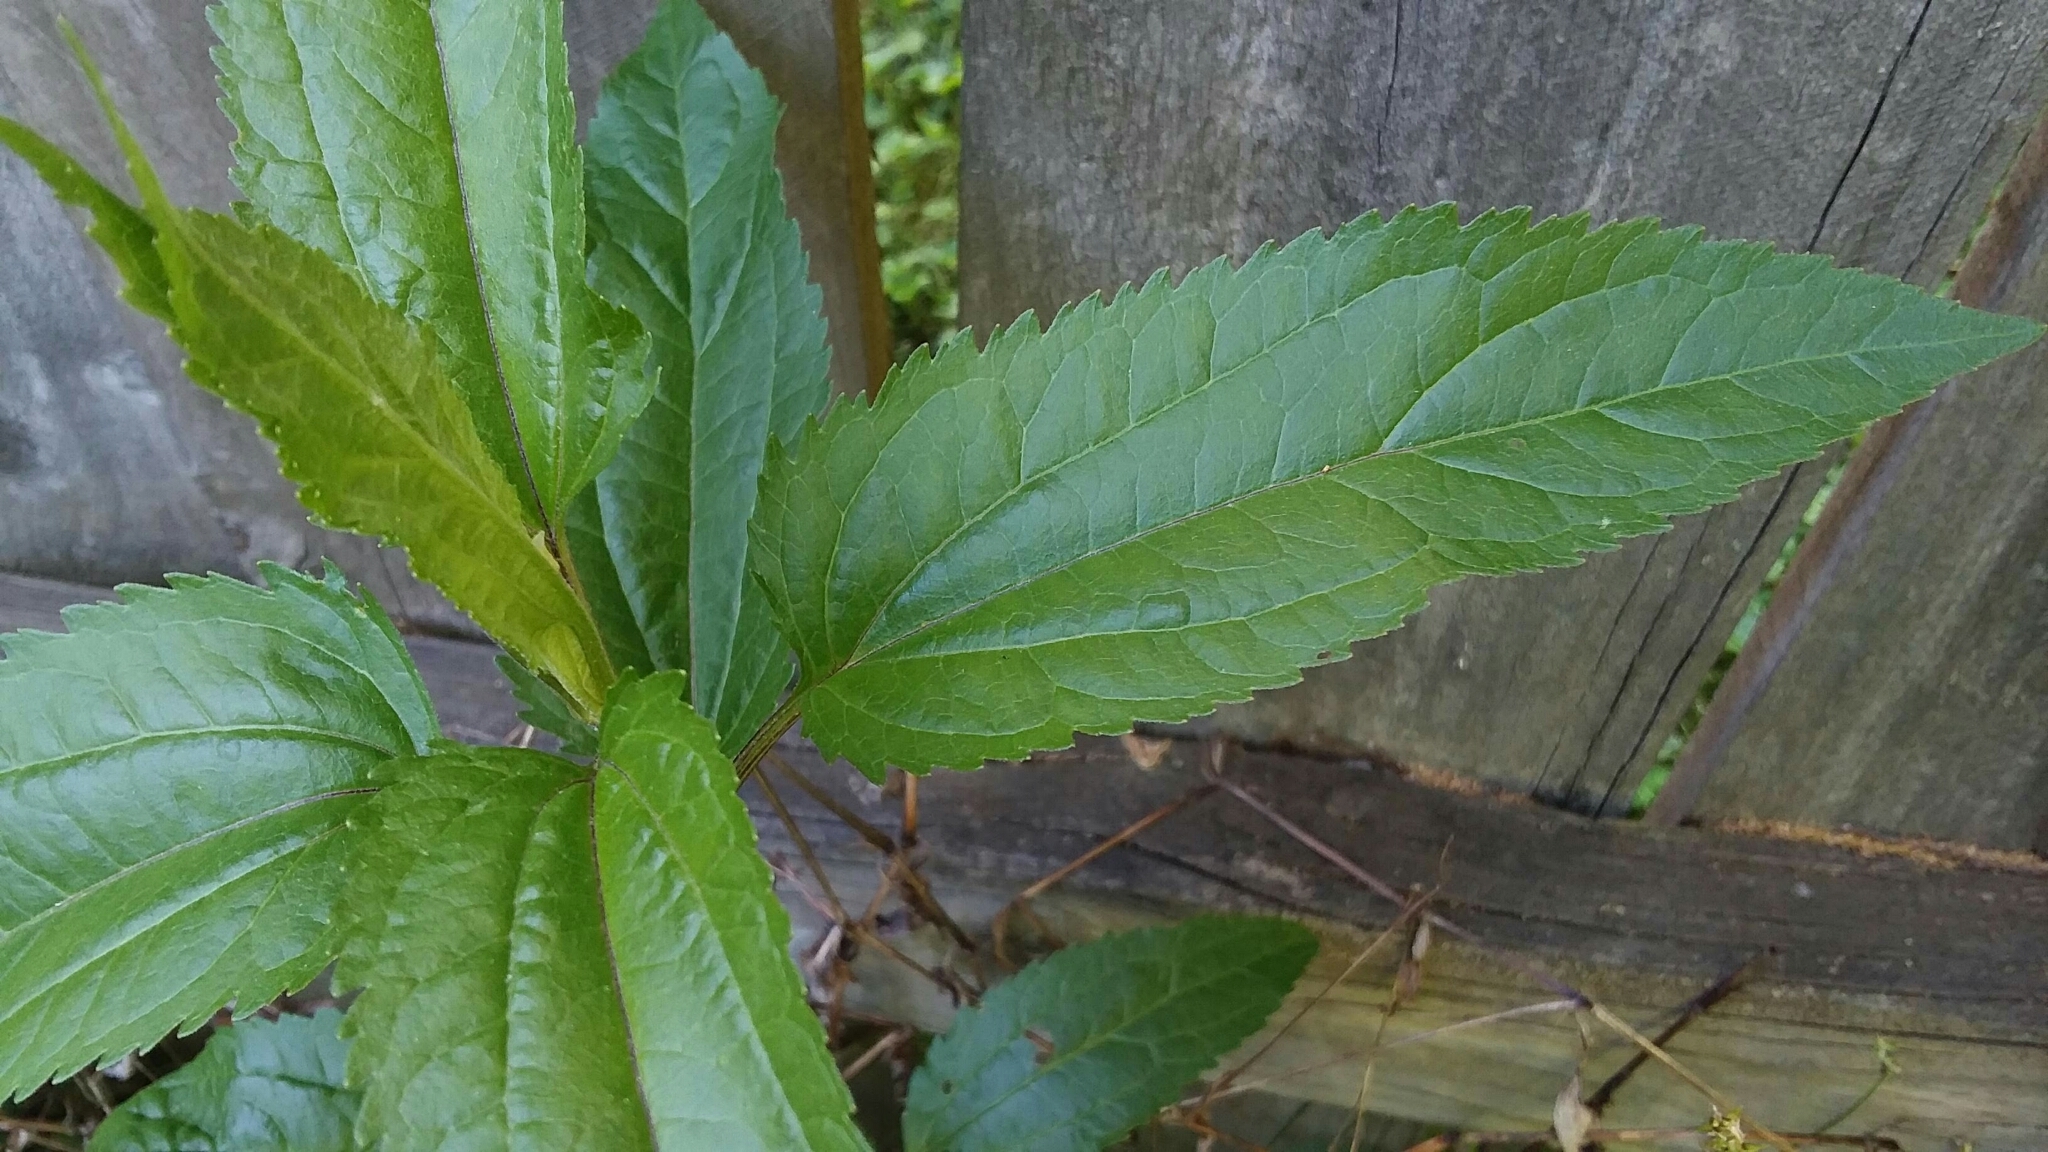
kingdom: Plantae
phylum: Tracheophyta
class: Magnoliopsida
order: Asterales
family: Asteraceae
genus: Eupatorium
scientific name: Eupatorium serotinum
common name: Late boneset
